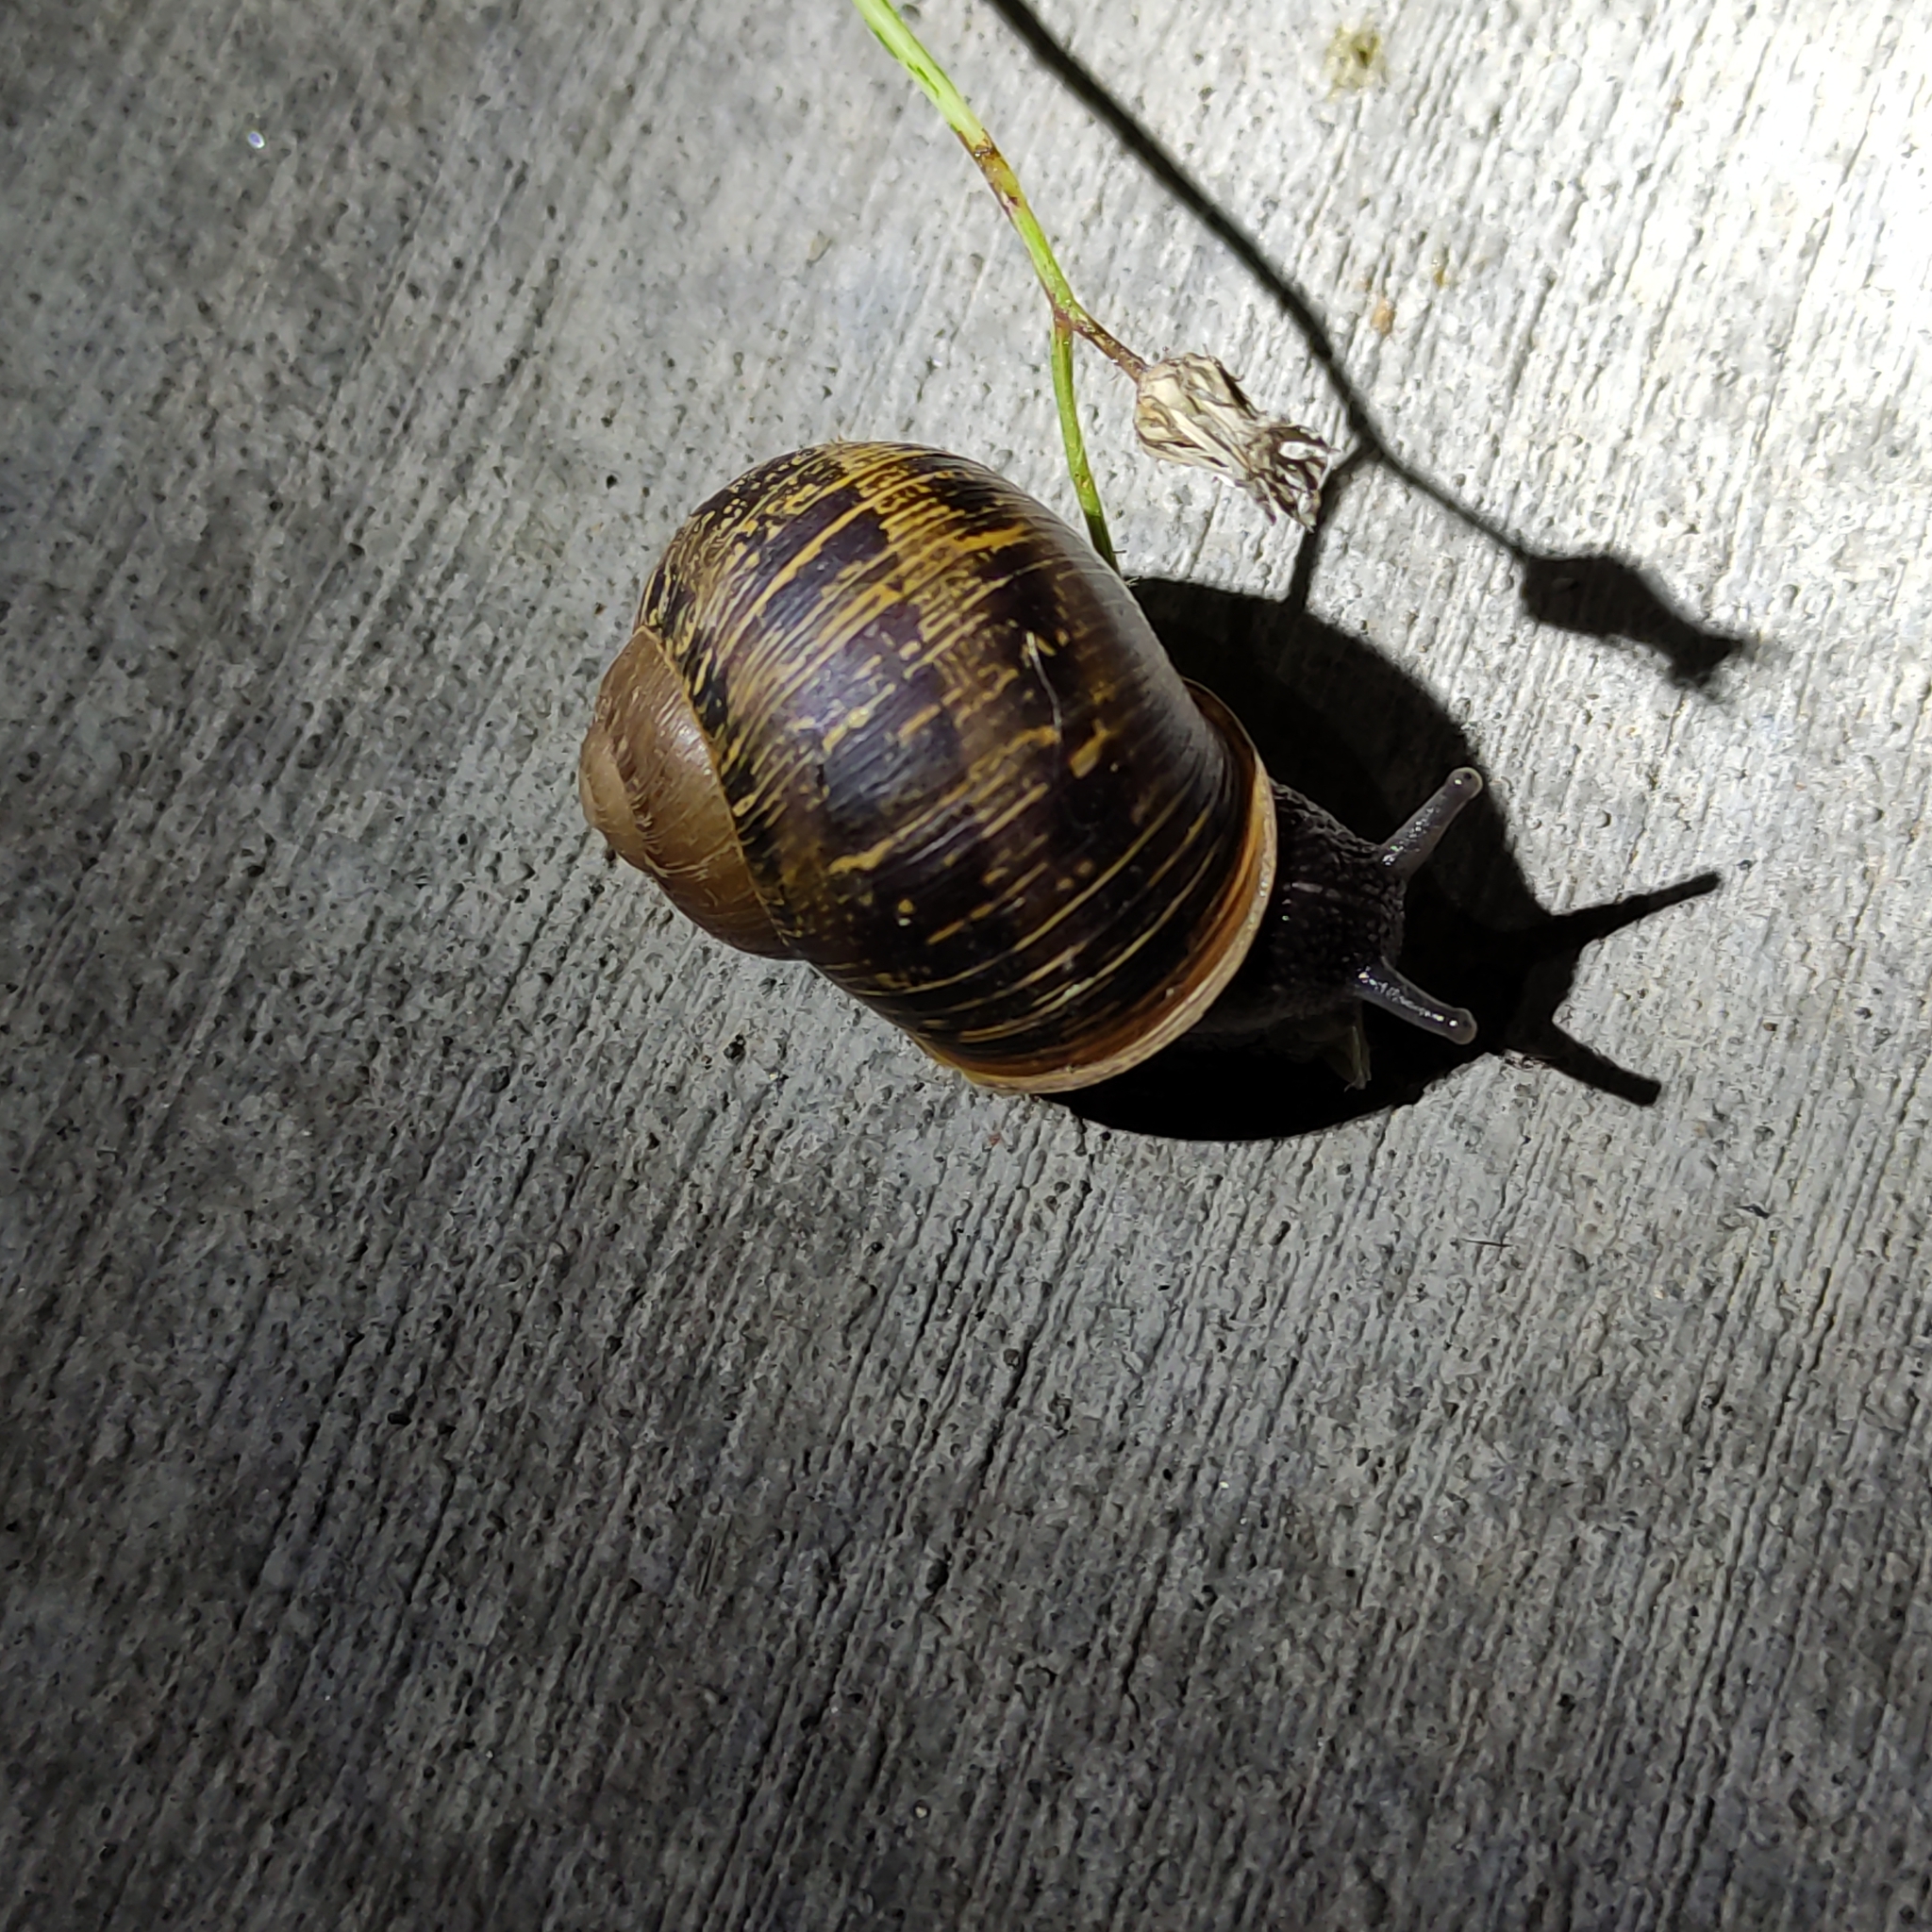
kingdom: Animalia
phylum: Mollusca
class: Gastropoda
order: Stylommatophora
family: Helicidae
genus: Cornu
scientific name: Cornu aspersum
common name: Brown garden snail
